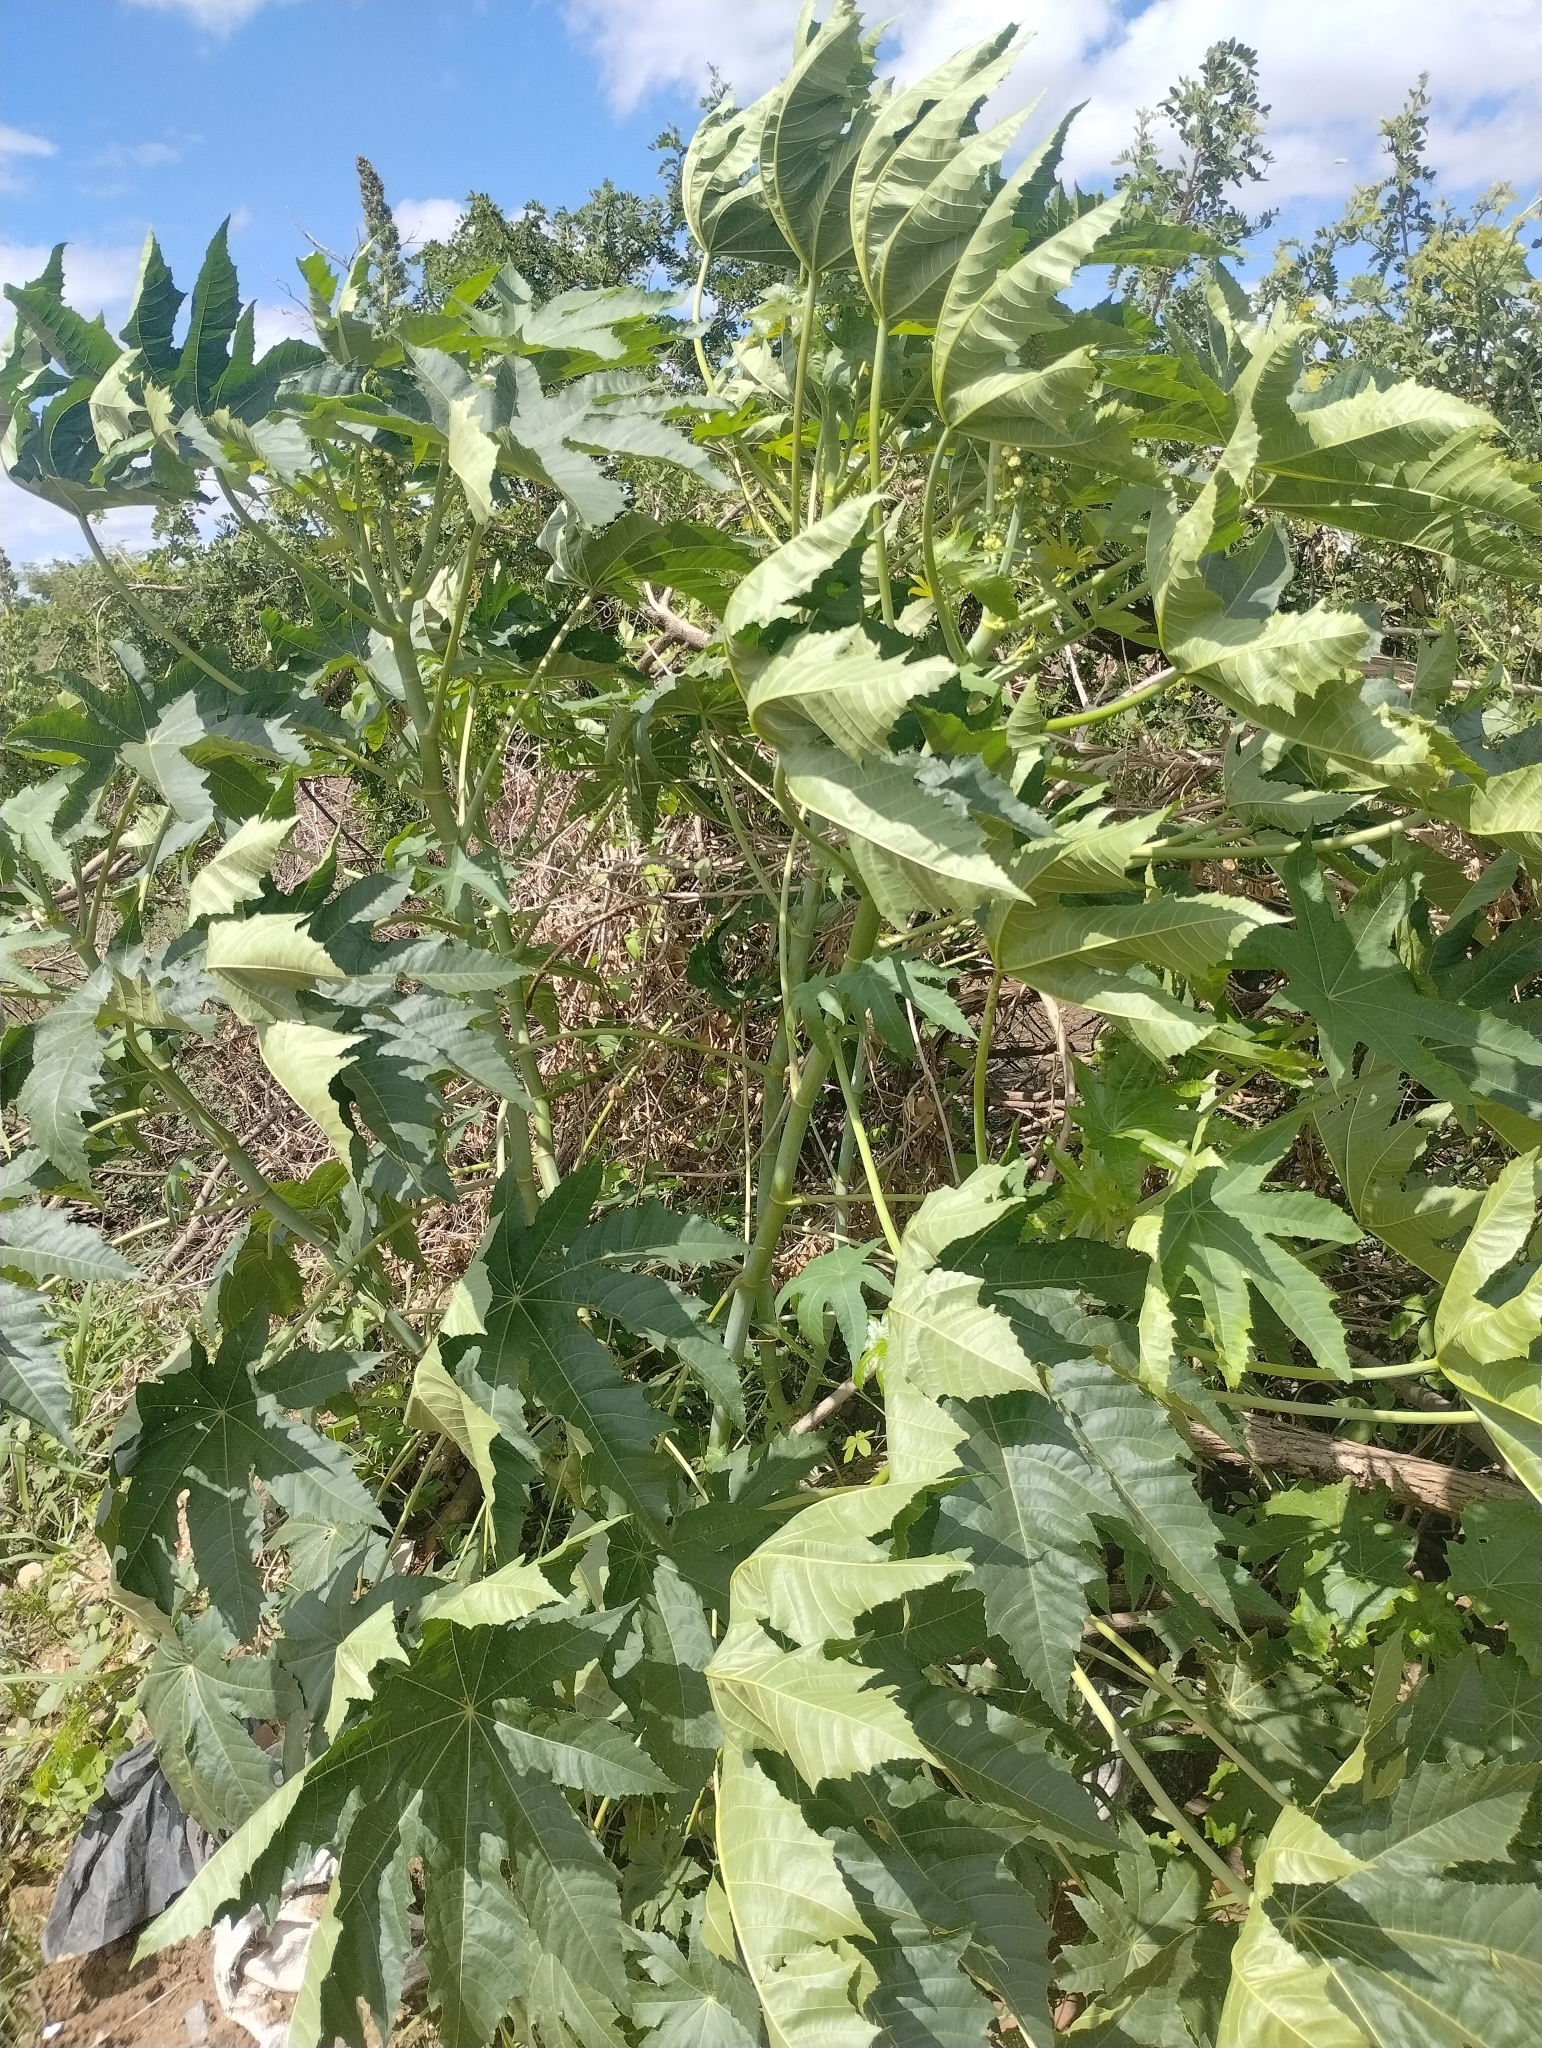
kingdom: Plantae
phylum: Tracheophyta
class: Magnoliopsida
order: Malpighiales
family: Euphorbiaceae
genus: Ricinus
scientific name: Ricinus communis
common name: Castor-oil-plant
